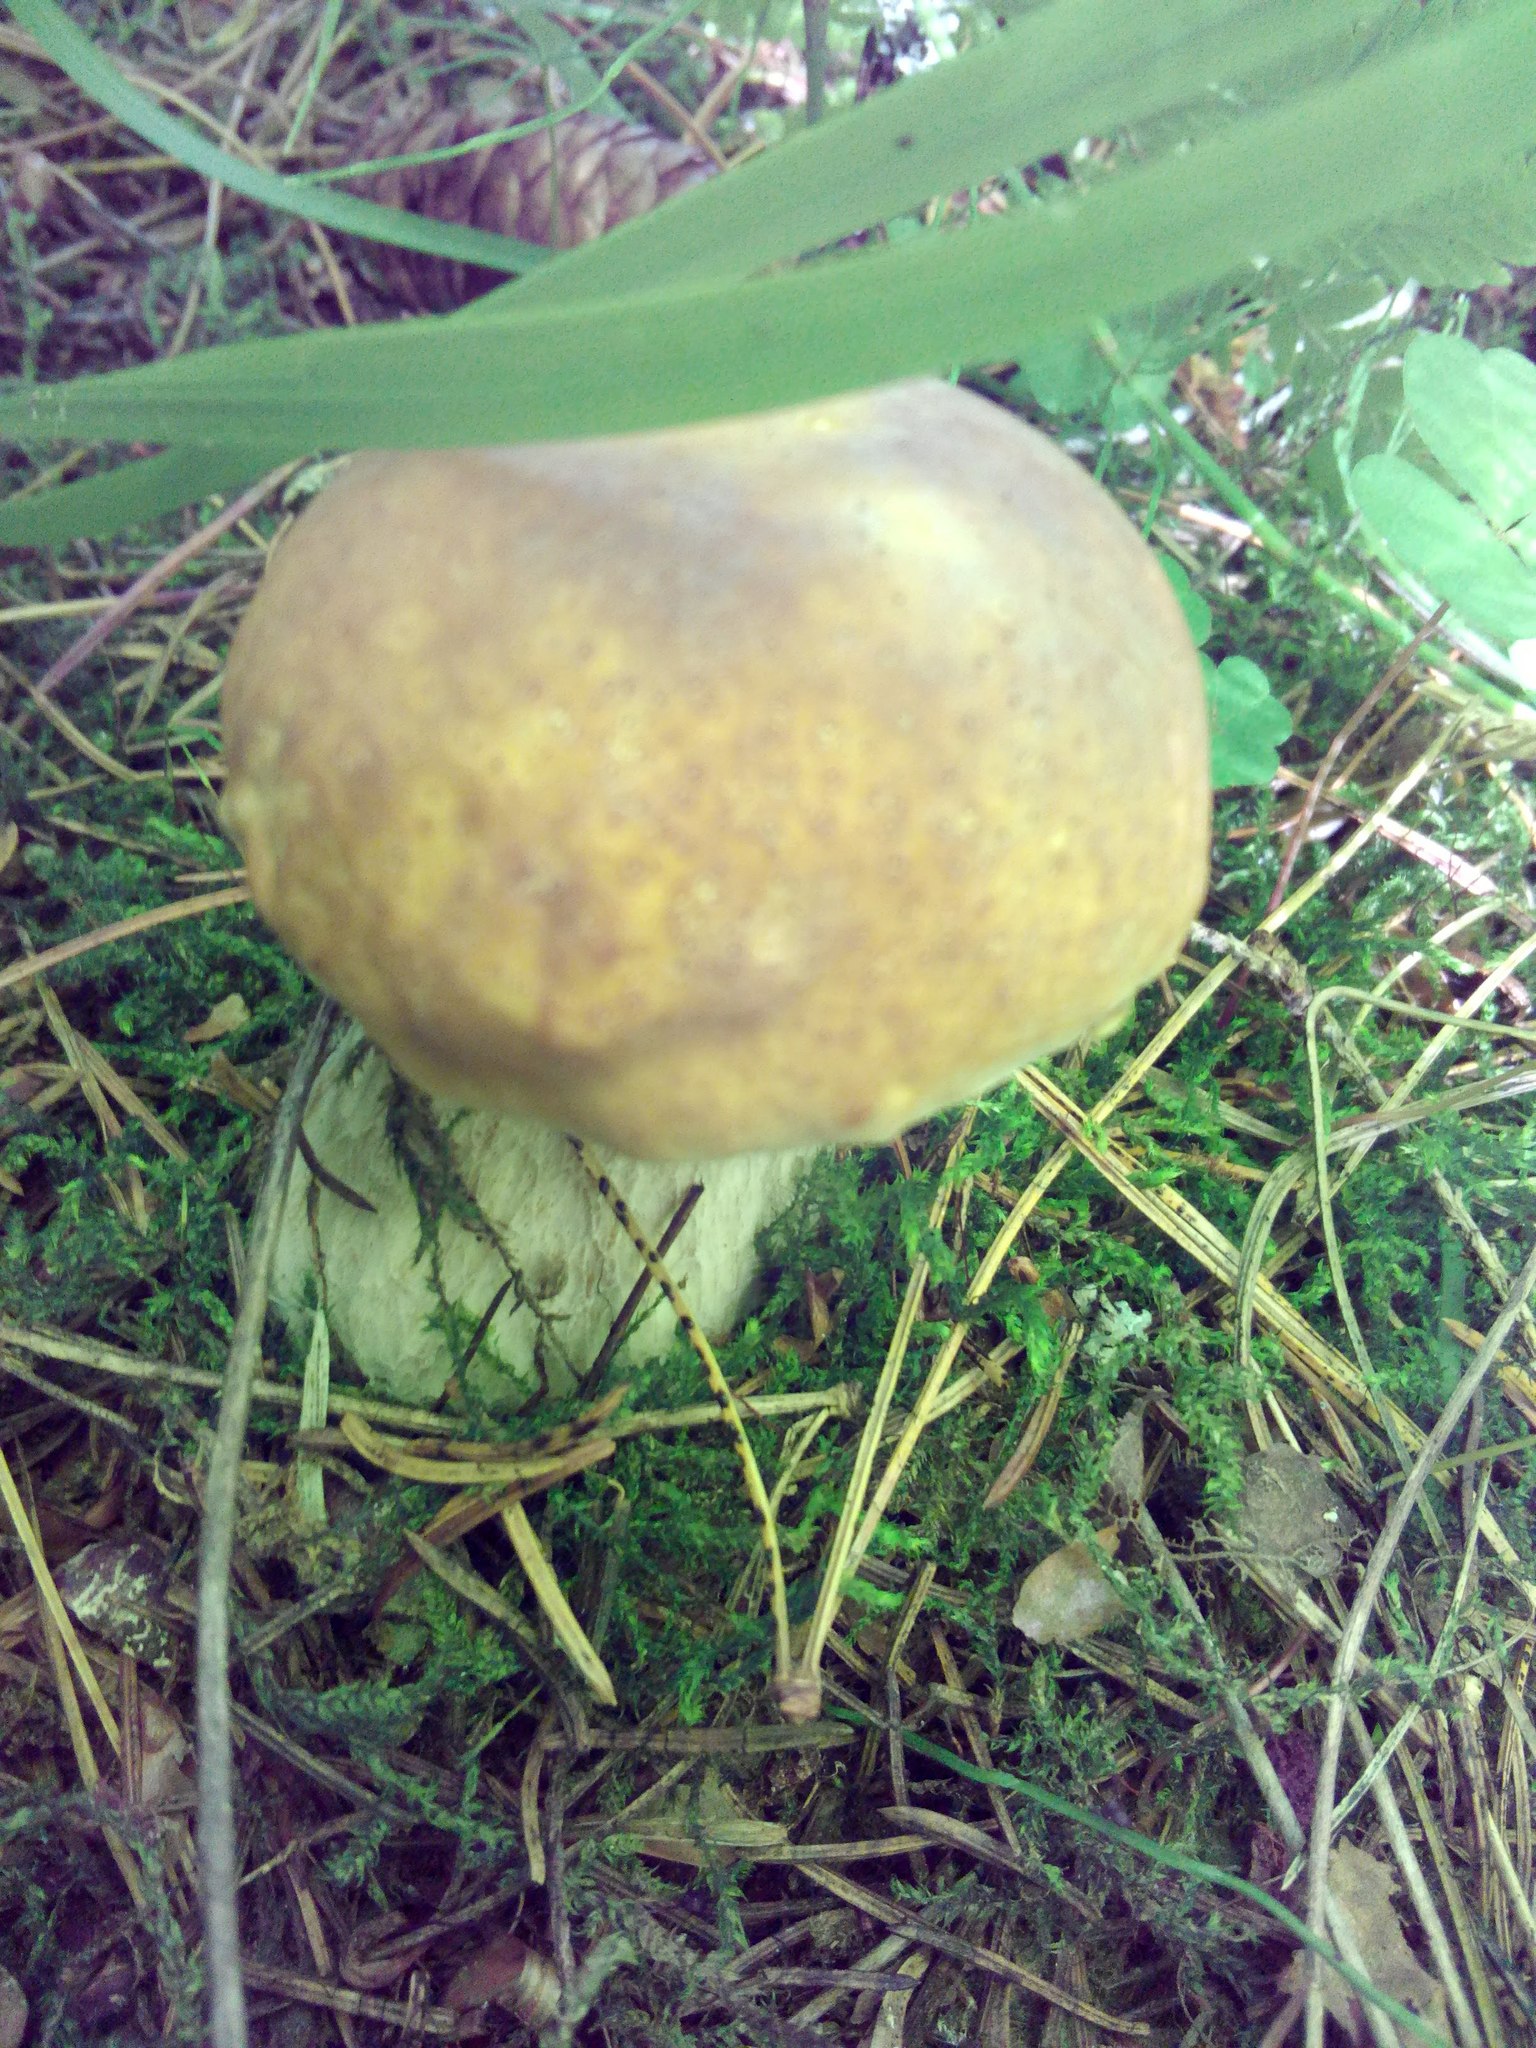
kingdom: Fungi
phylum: Basidiomycota
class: Agaricomycetes
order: Boletales
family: Boletaceae
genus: Boletus
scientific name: Boletus edulis
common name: Cep
